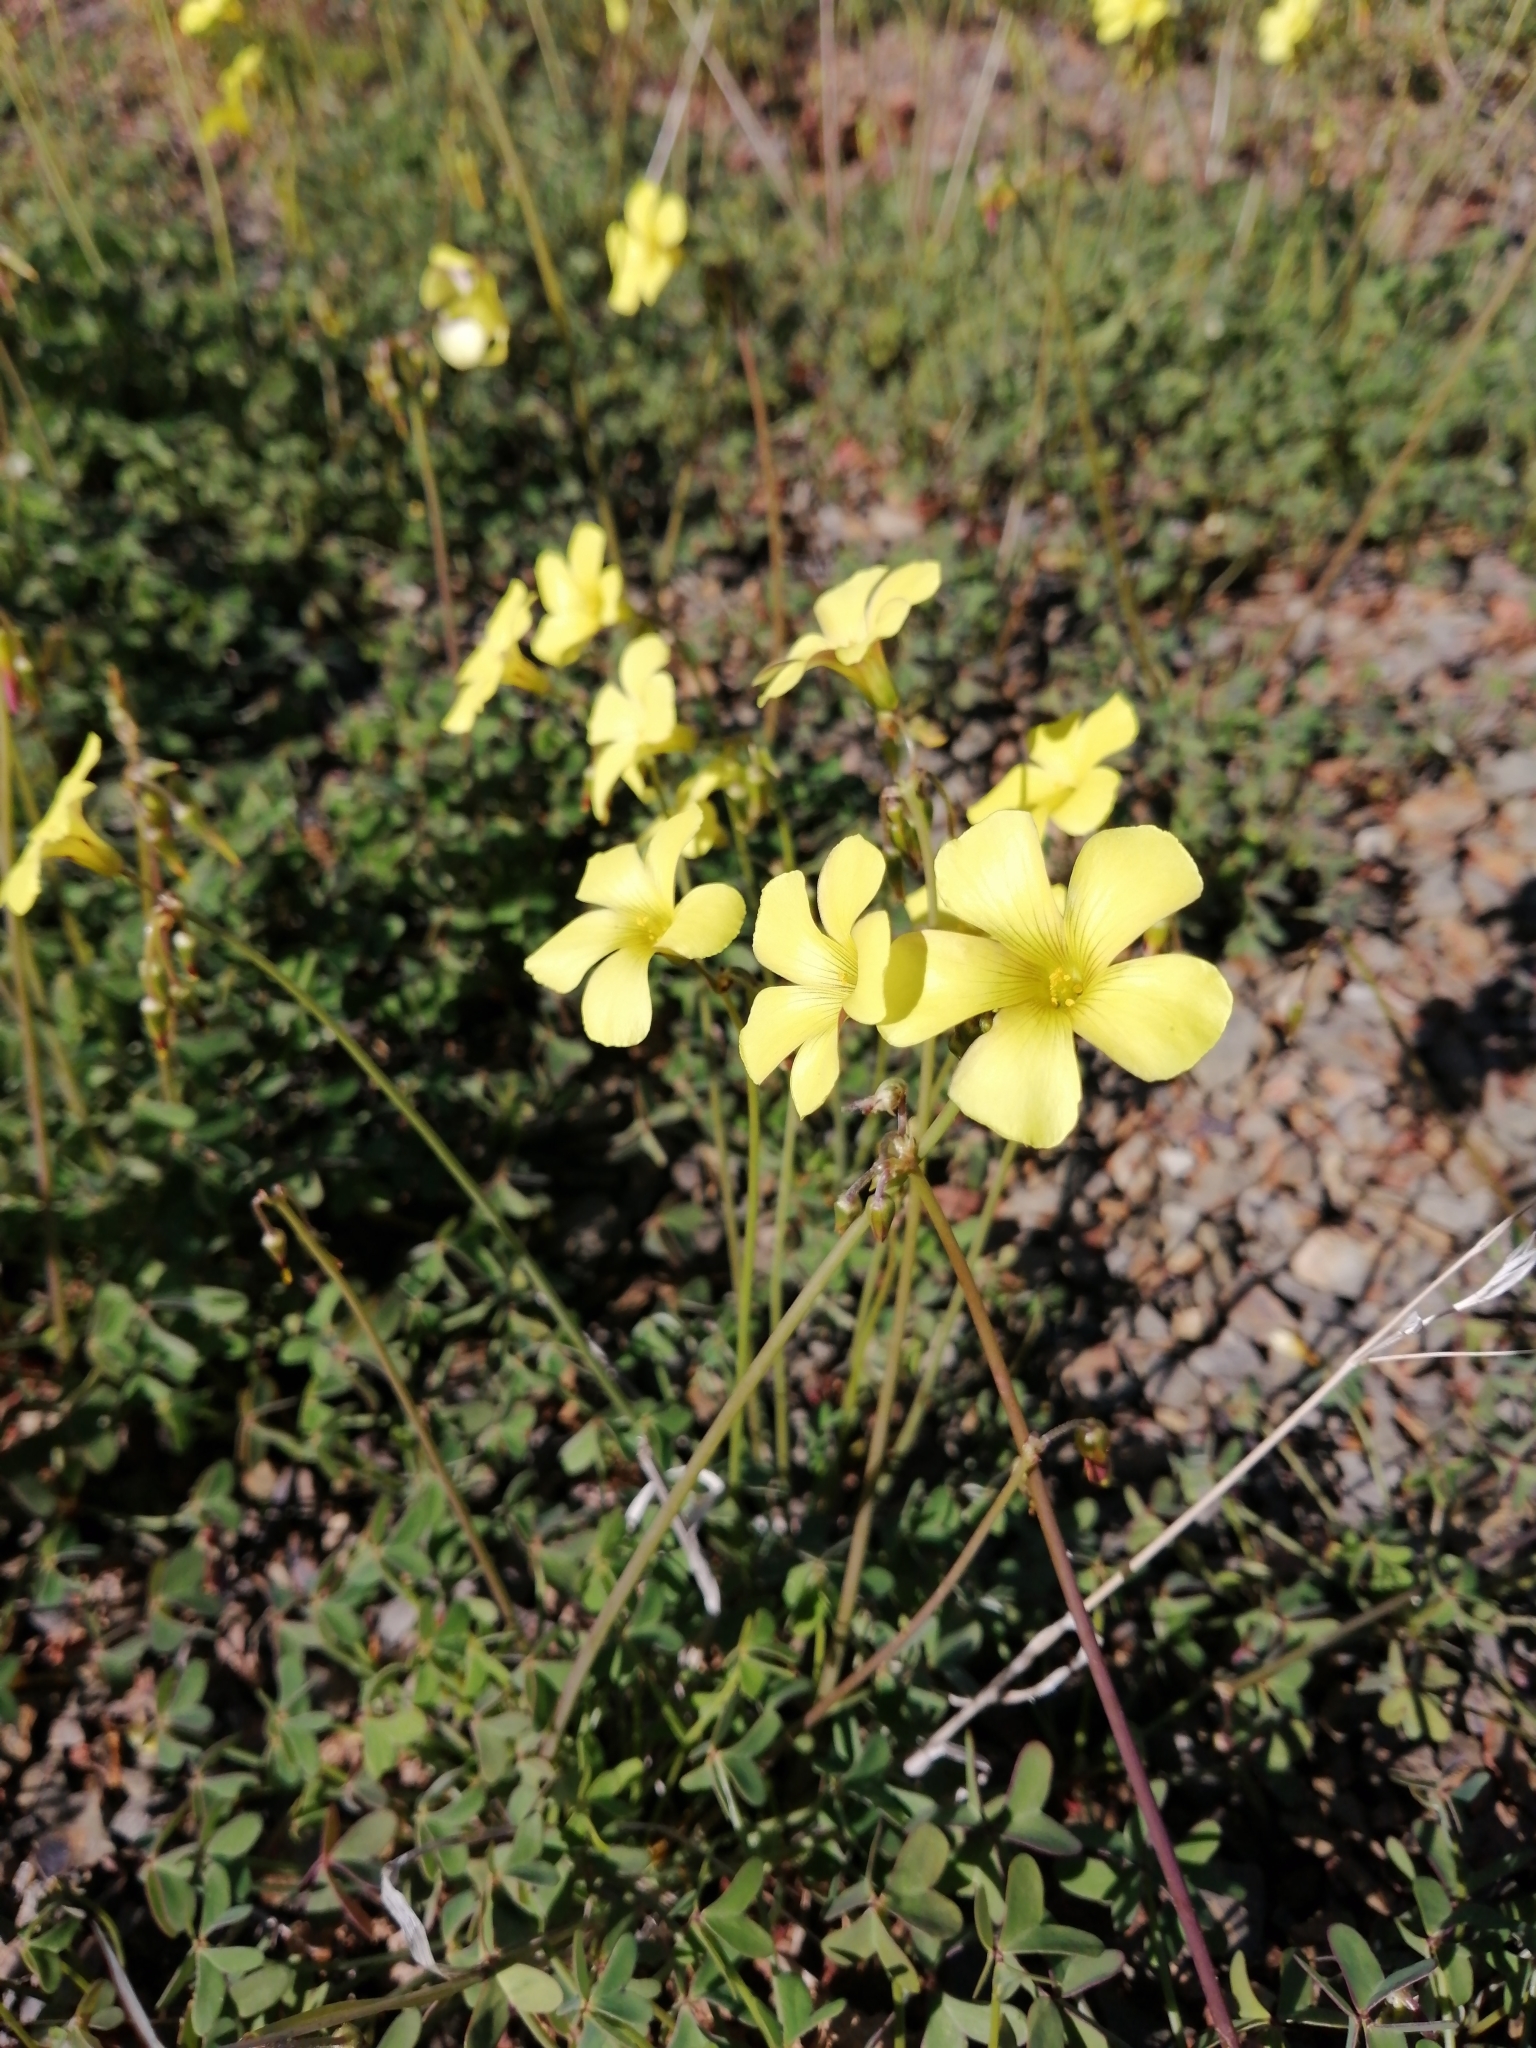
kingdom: Plantae
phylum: Tracheophyta
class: Magnoliopsida
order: Oxalidales
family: Oxalidaceae
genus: Oxalis
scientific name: Oxalis pes-caprae
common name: Bermuda-buttercup
